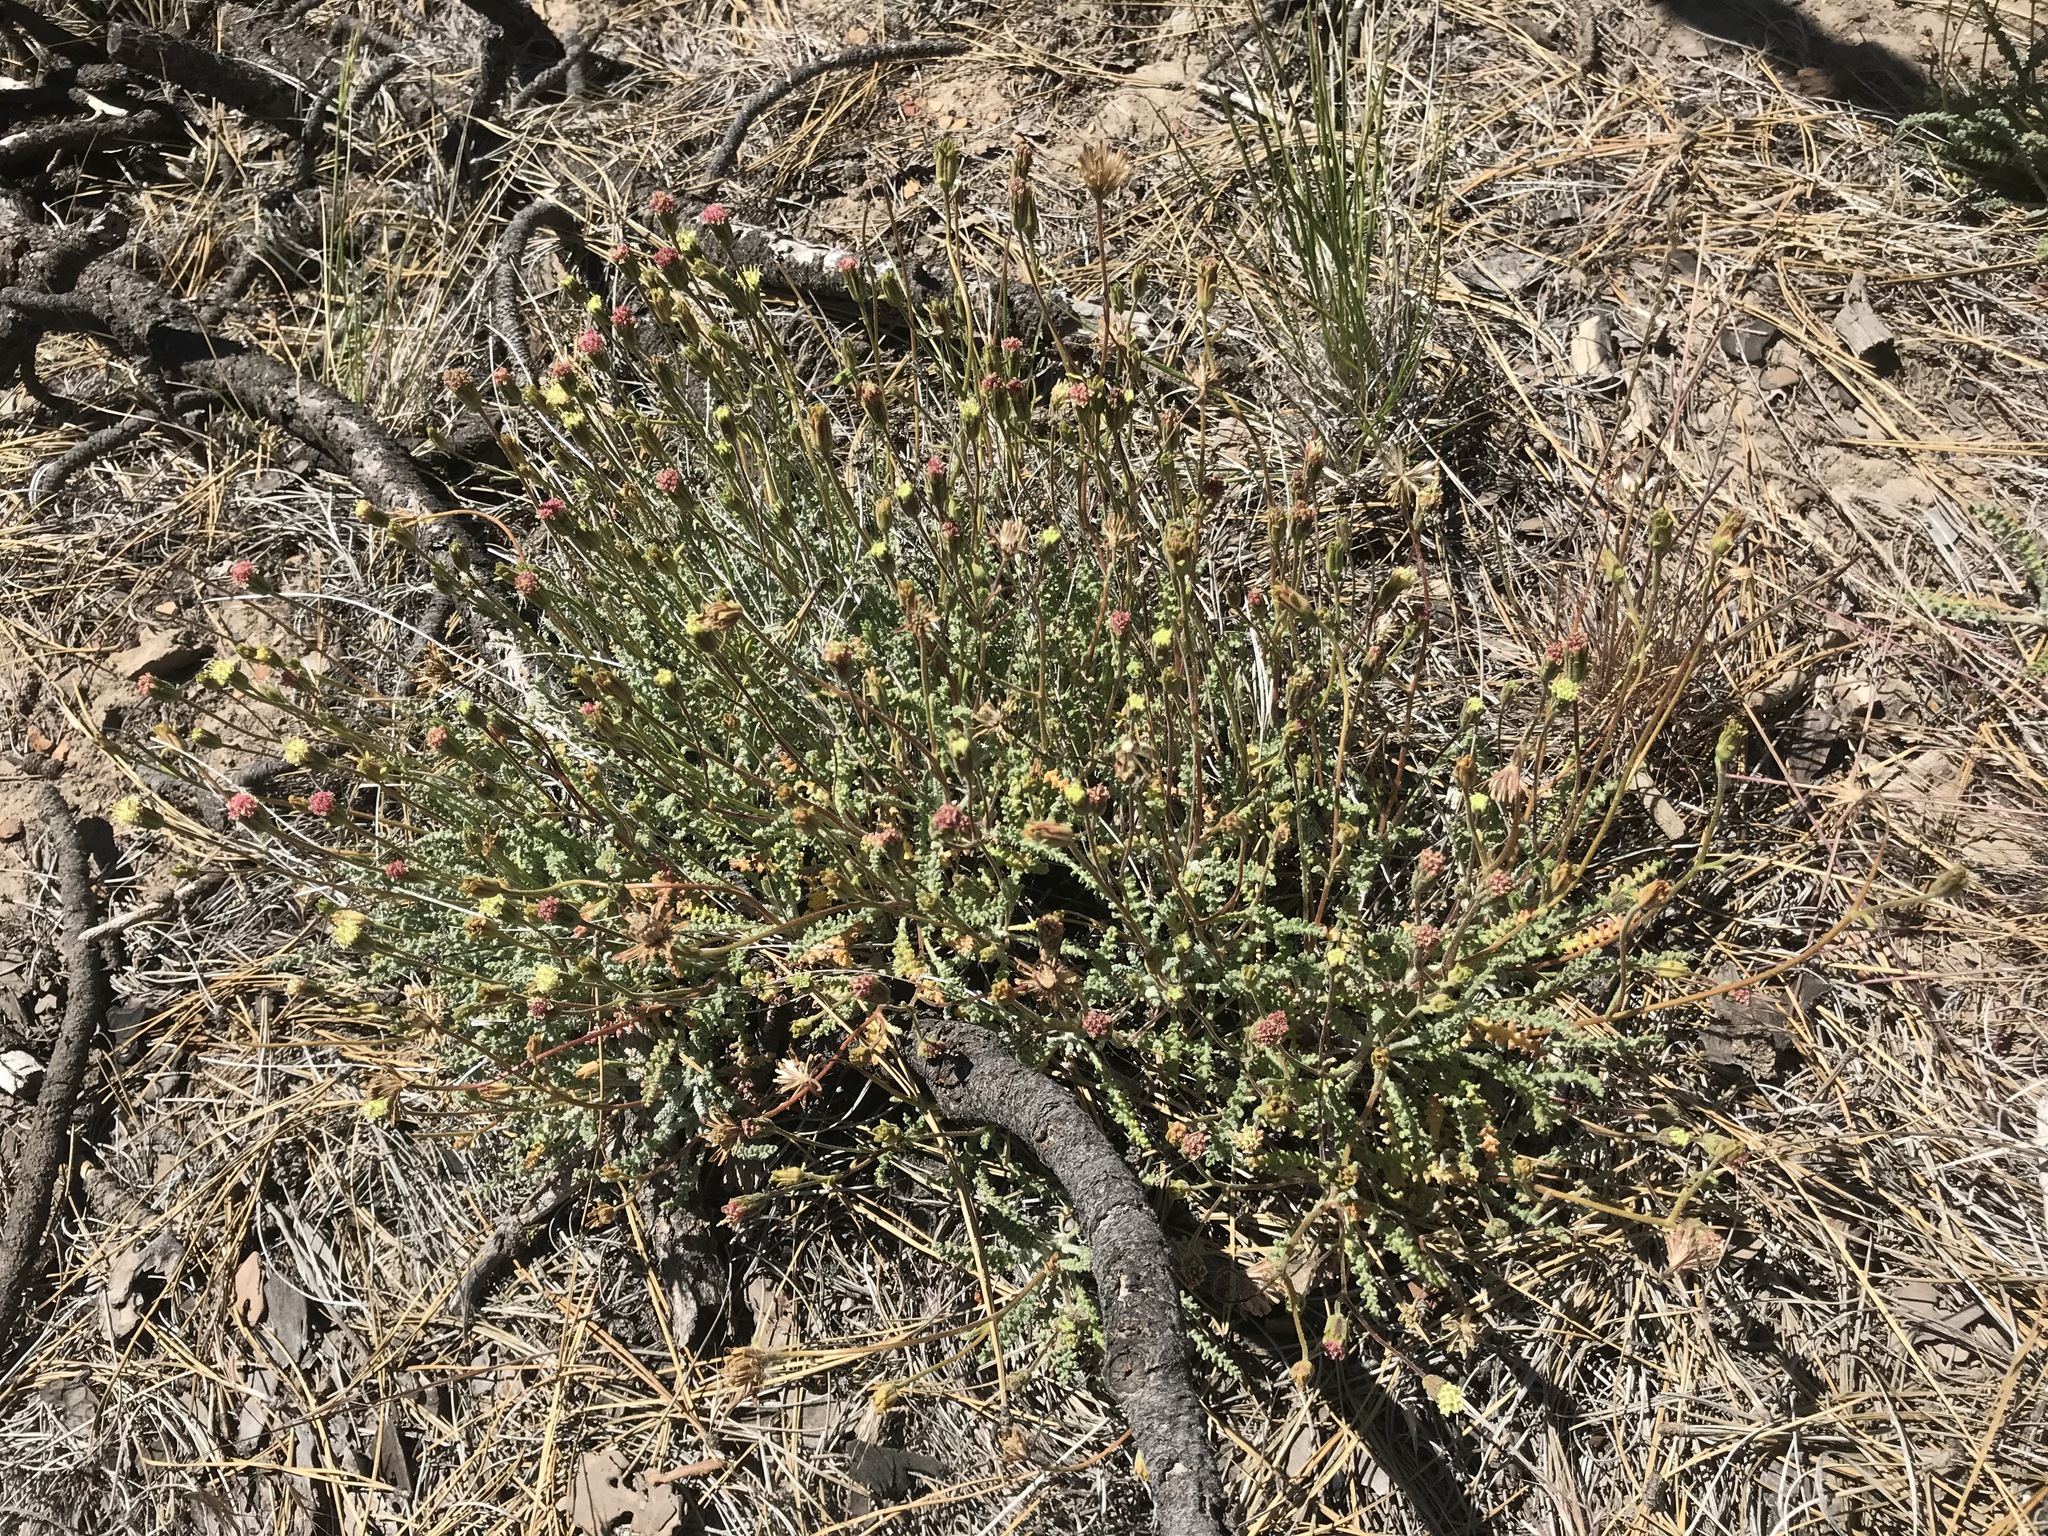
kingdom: Plantae
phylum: Tracheophyta
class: Magnoliopsida
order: Asterales
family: Asteraceae
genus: Chaenactis
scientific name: Chaenactis santolinoides
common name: Santolina pincushion
